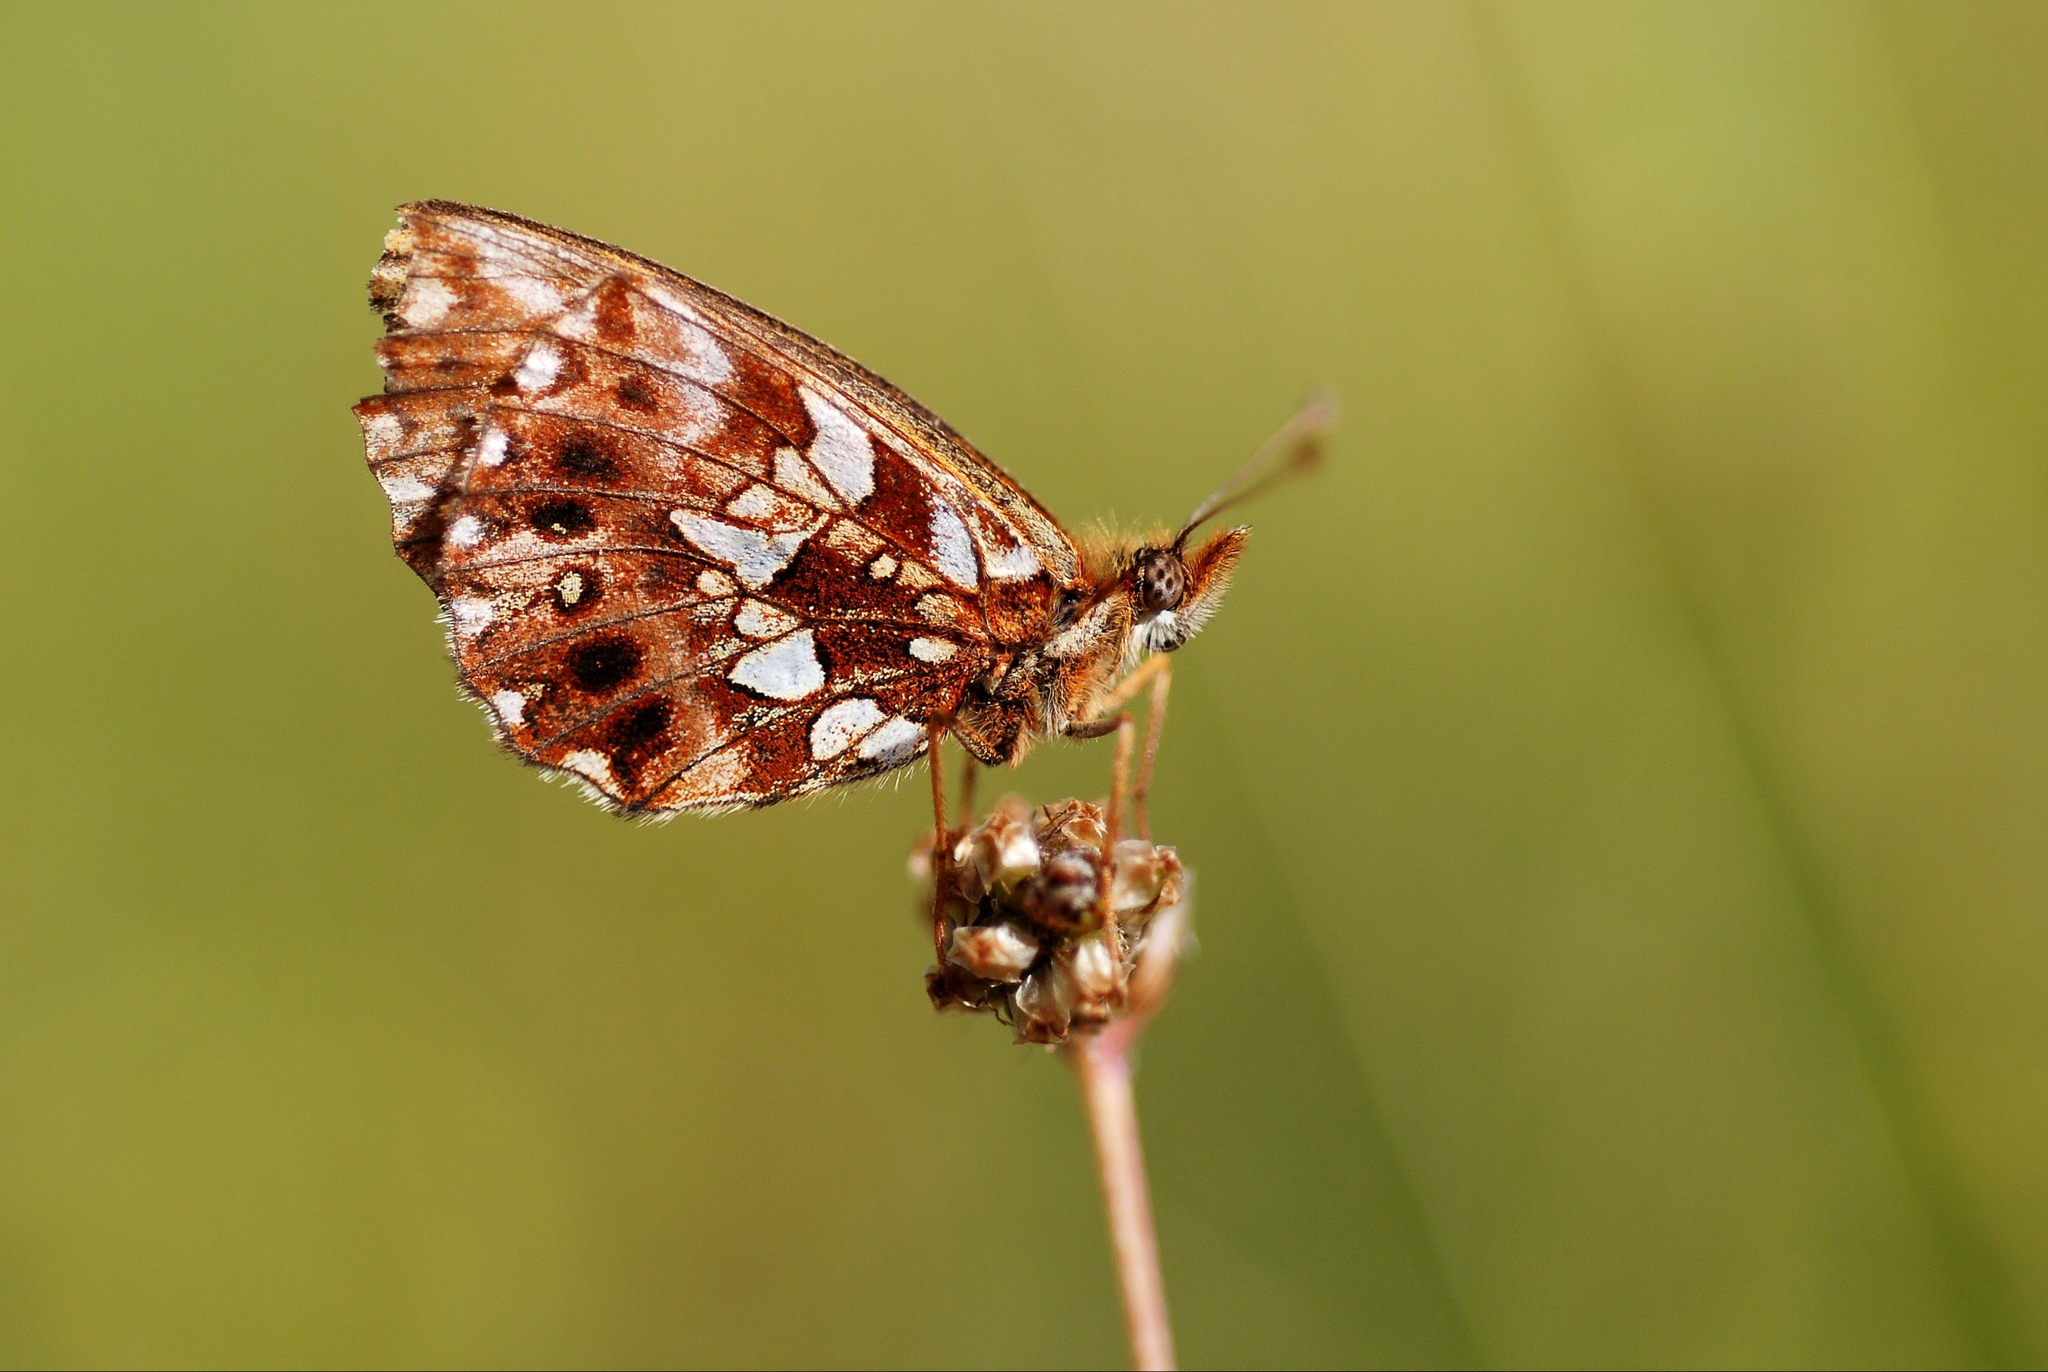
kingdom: Animalia
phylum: Arthropoda
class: Insecta
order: Lepidoptera
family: Nymphalidae
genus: Boloria
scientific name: Boloria dia
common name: Weaver's fritillary
